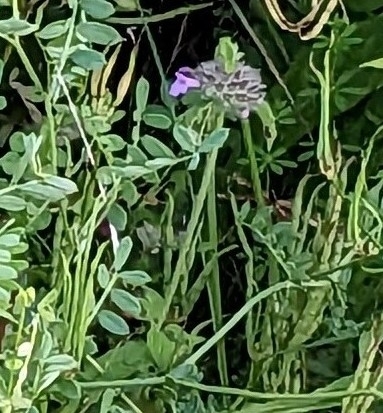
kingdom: Plantae
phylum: Tracheophyta
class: Magnoliopsida
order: Lamiales
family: Lamiaceae
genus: Clinopodium
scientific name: Clinopodium vulgare
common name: Wild basil
